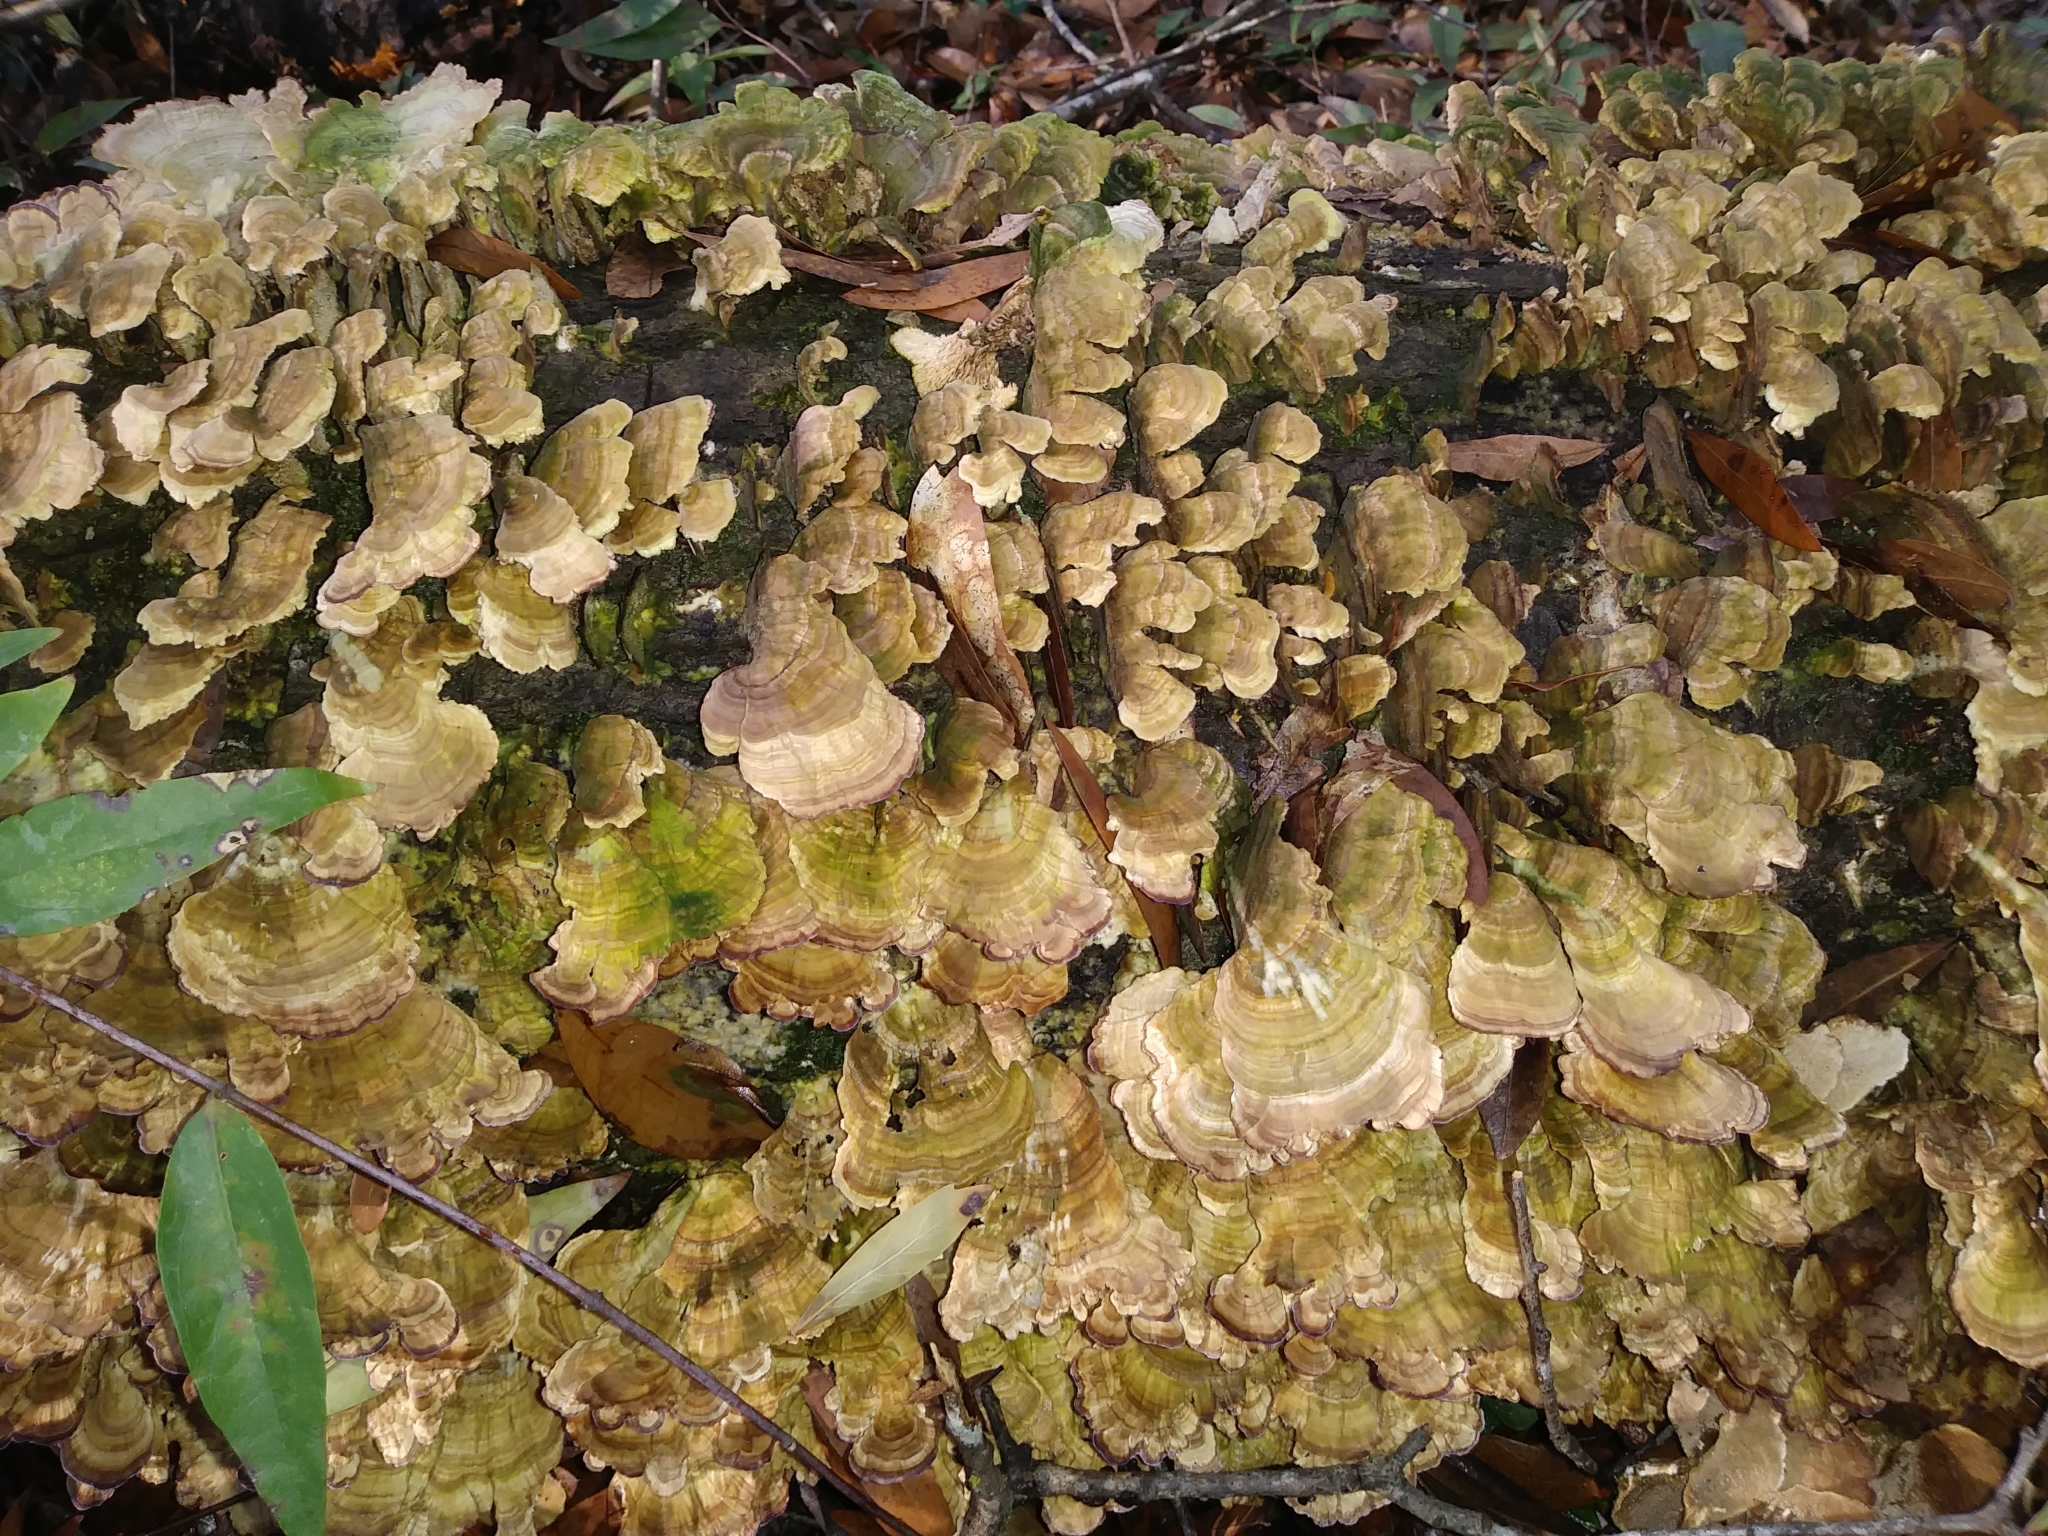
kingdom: Fungi
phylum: Basidiomycota
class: Agaricomycetes
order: Hymenochaetales
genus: Trichaptum
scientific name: Trichaptum biforme
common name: Violet-toothed polypore
